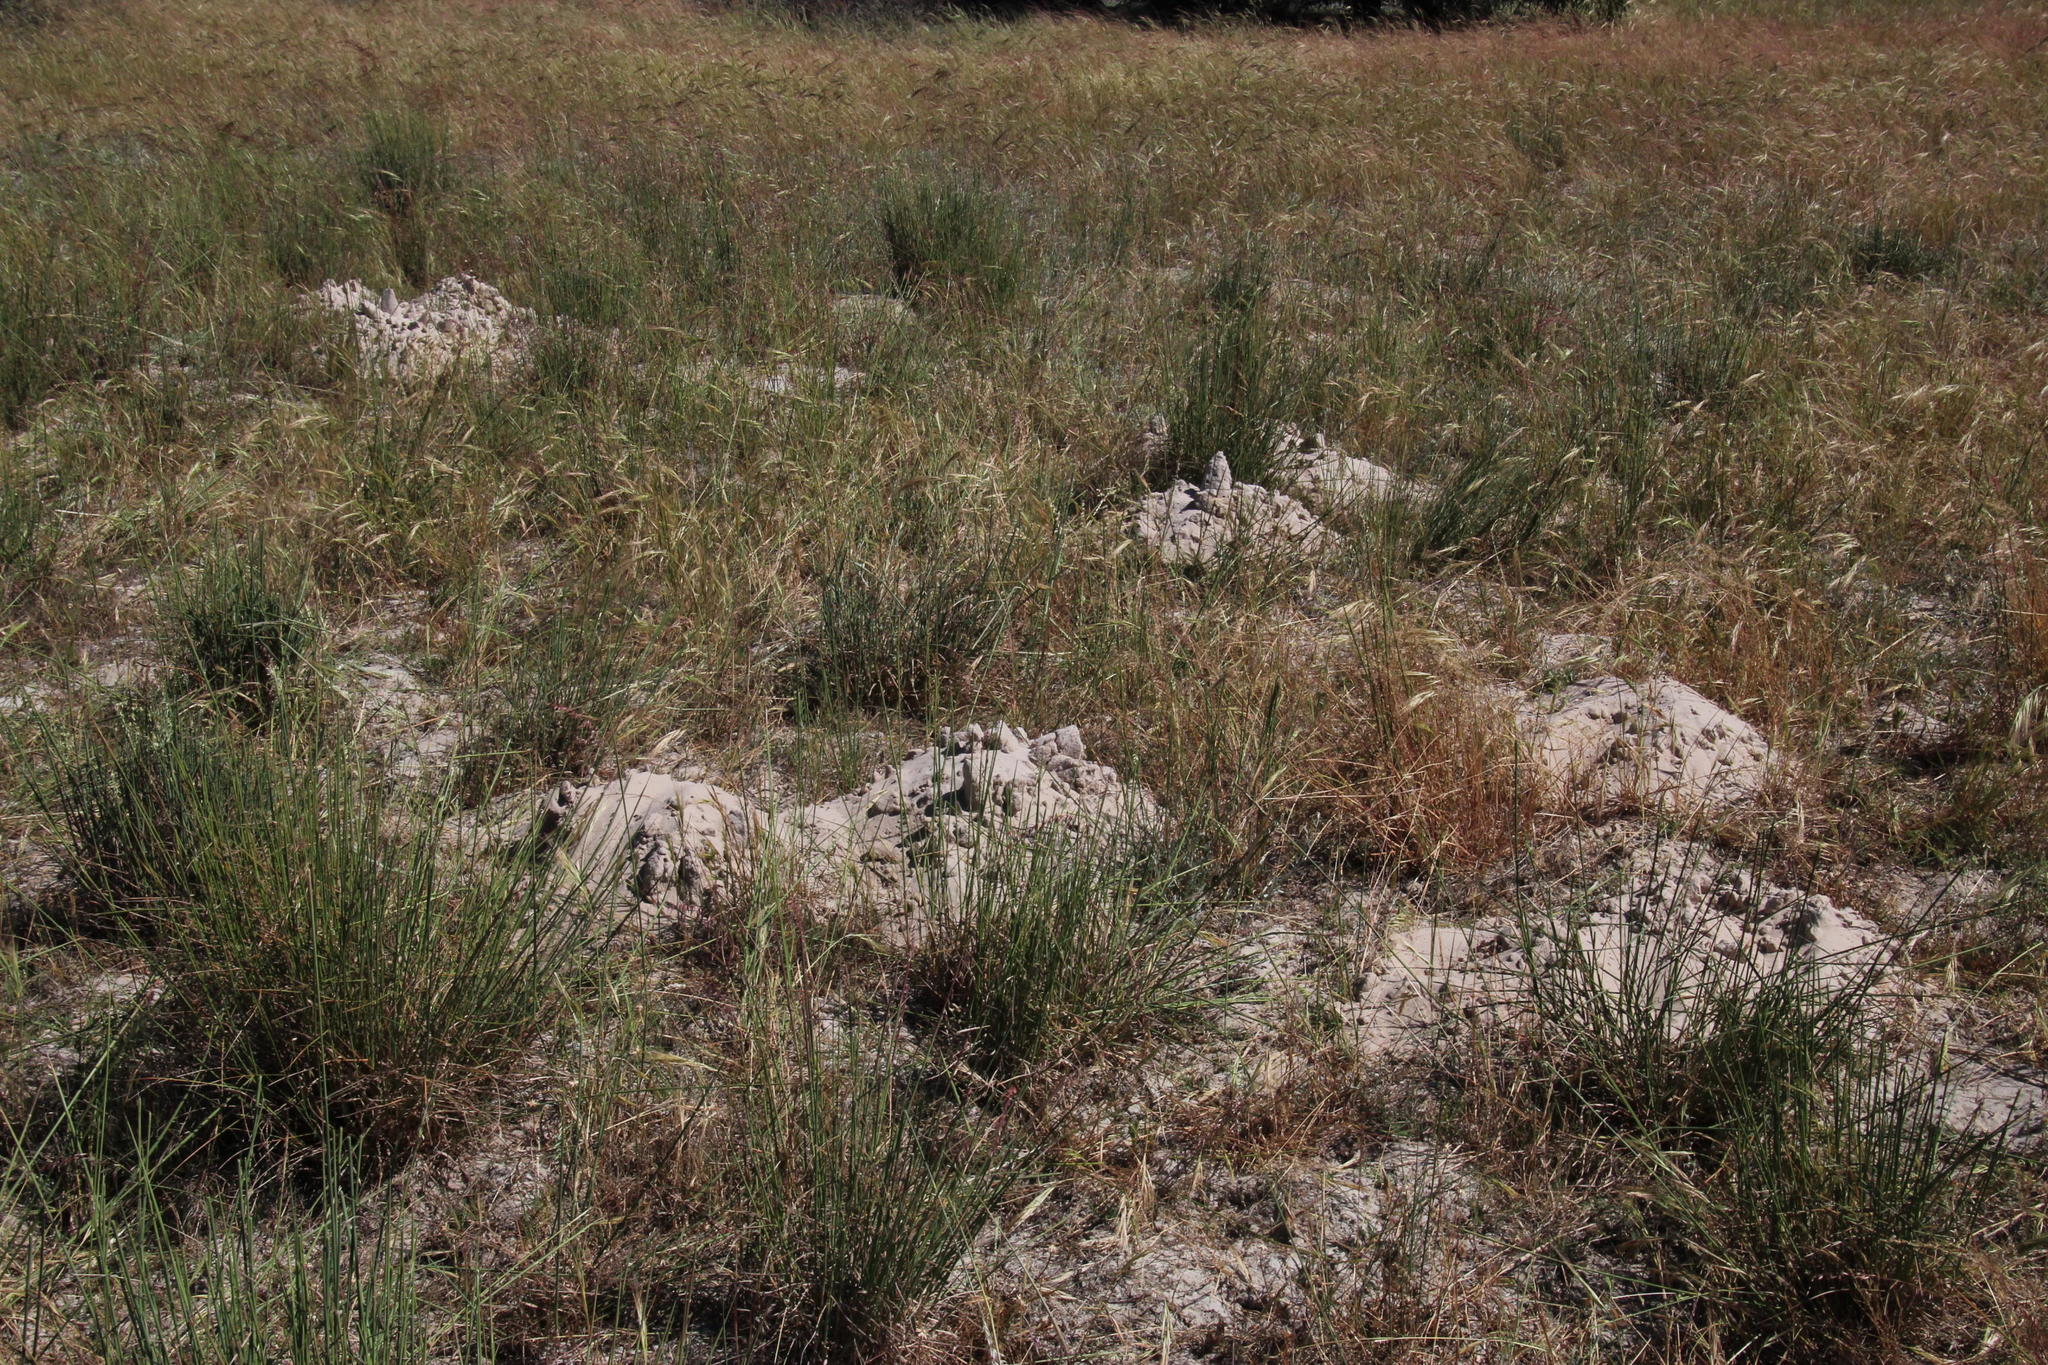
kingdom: Animalia
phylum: Chordata
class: Mammalia
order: Rodentia
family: Bathyergidae
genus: Bathyergus
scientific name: Bathyergus suillus
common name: Cape dune mole rat
